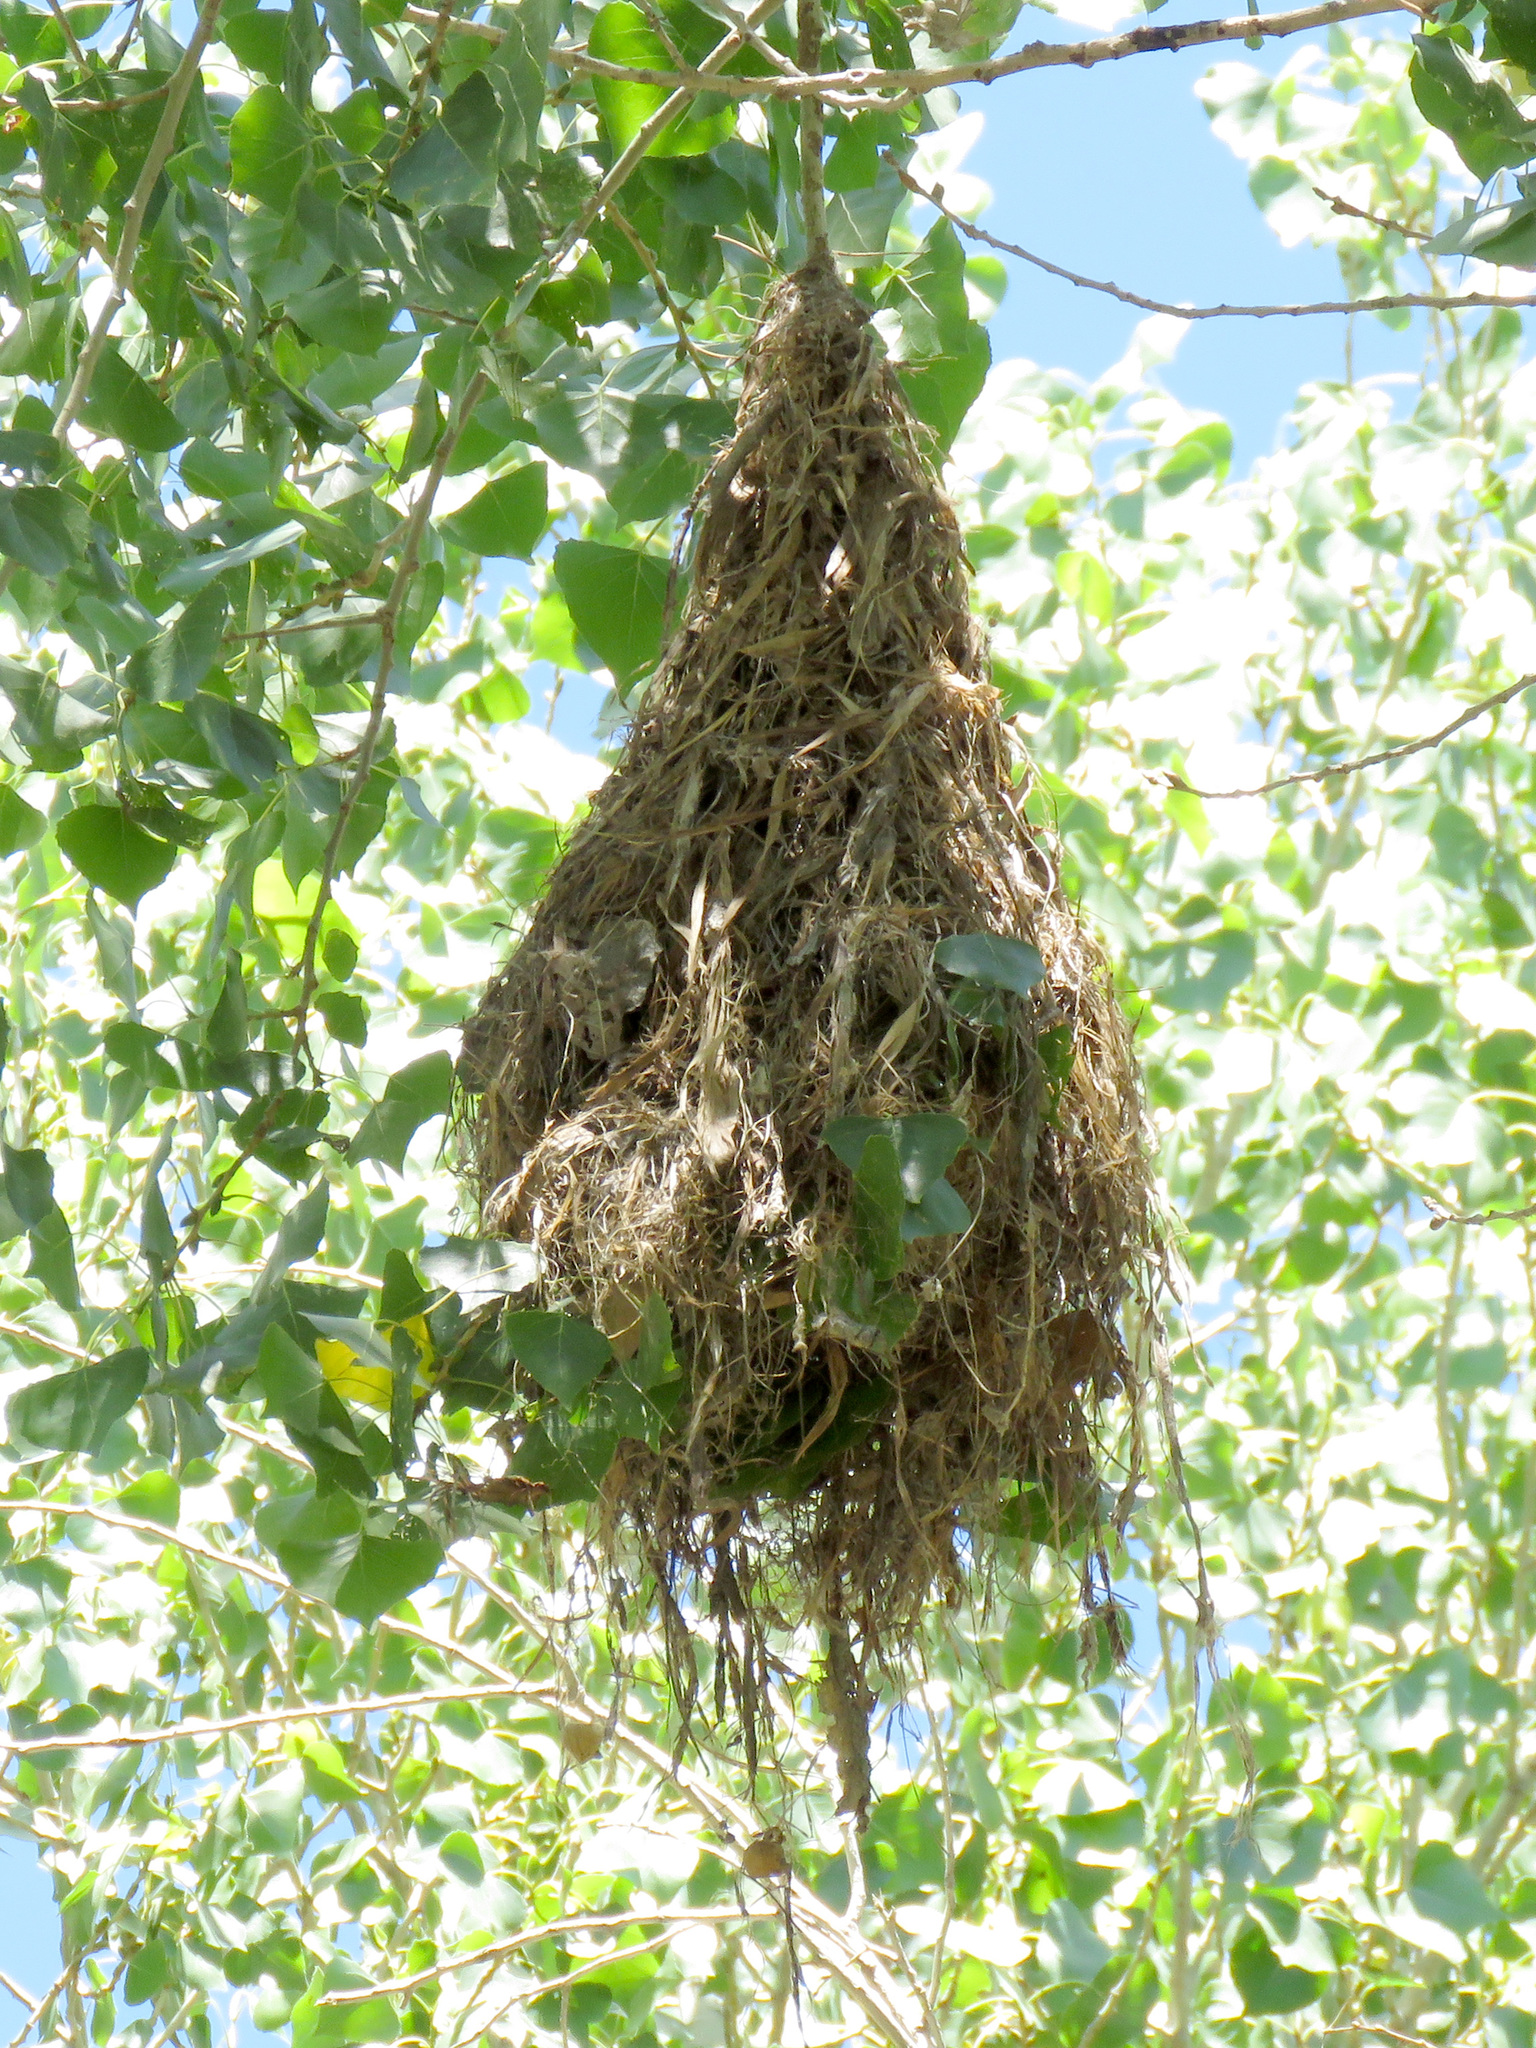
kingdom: Animalia
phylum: Chordata
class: Aves
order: Passeriformes
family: Cotingidae
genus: Pachyramphus
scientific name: Pachyramphus aglaiae
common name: Rose-throated becard
